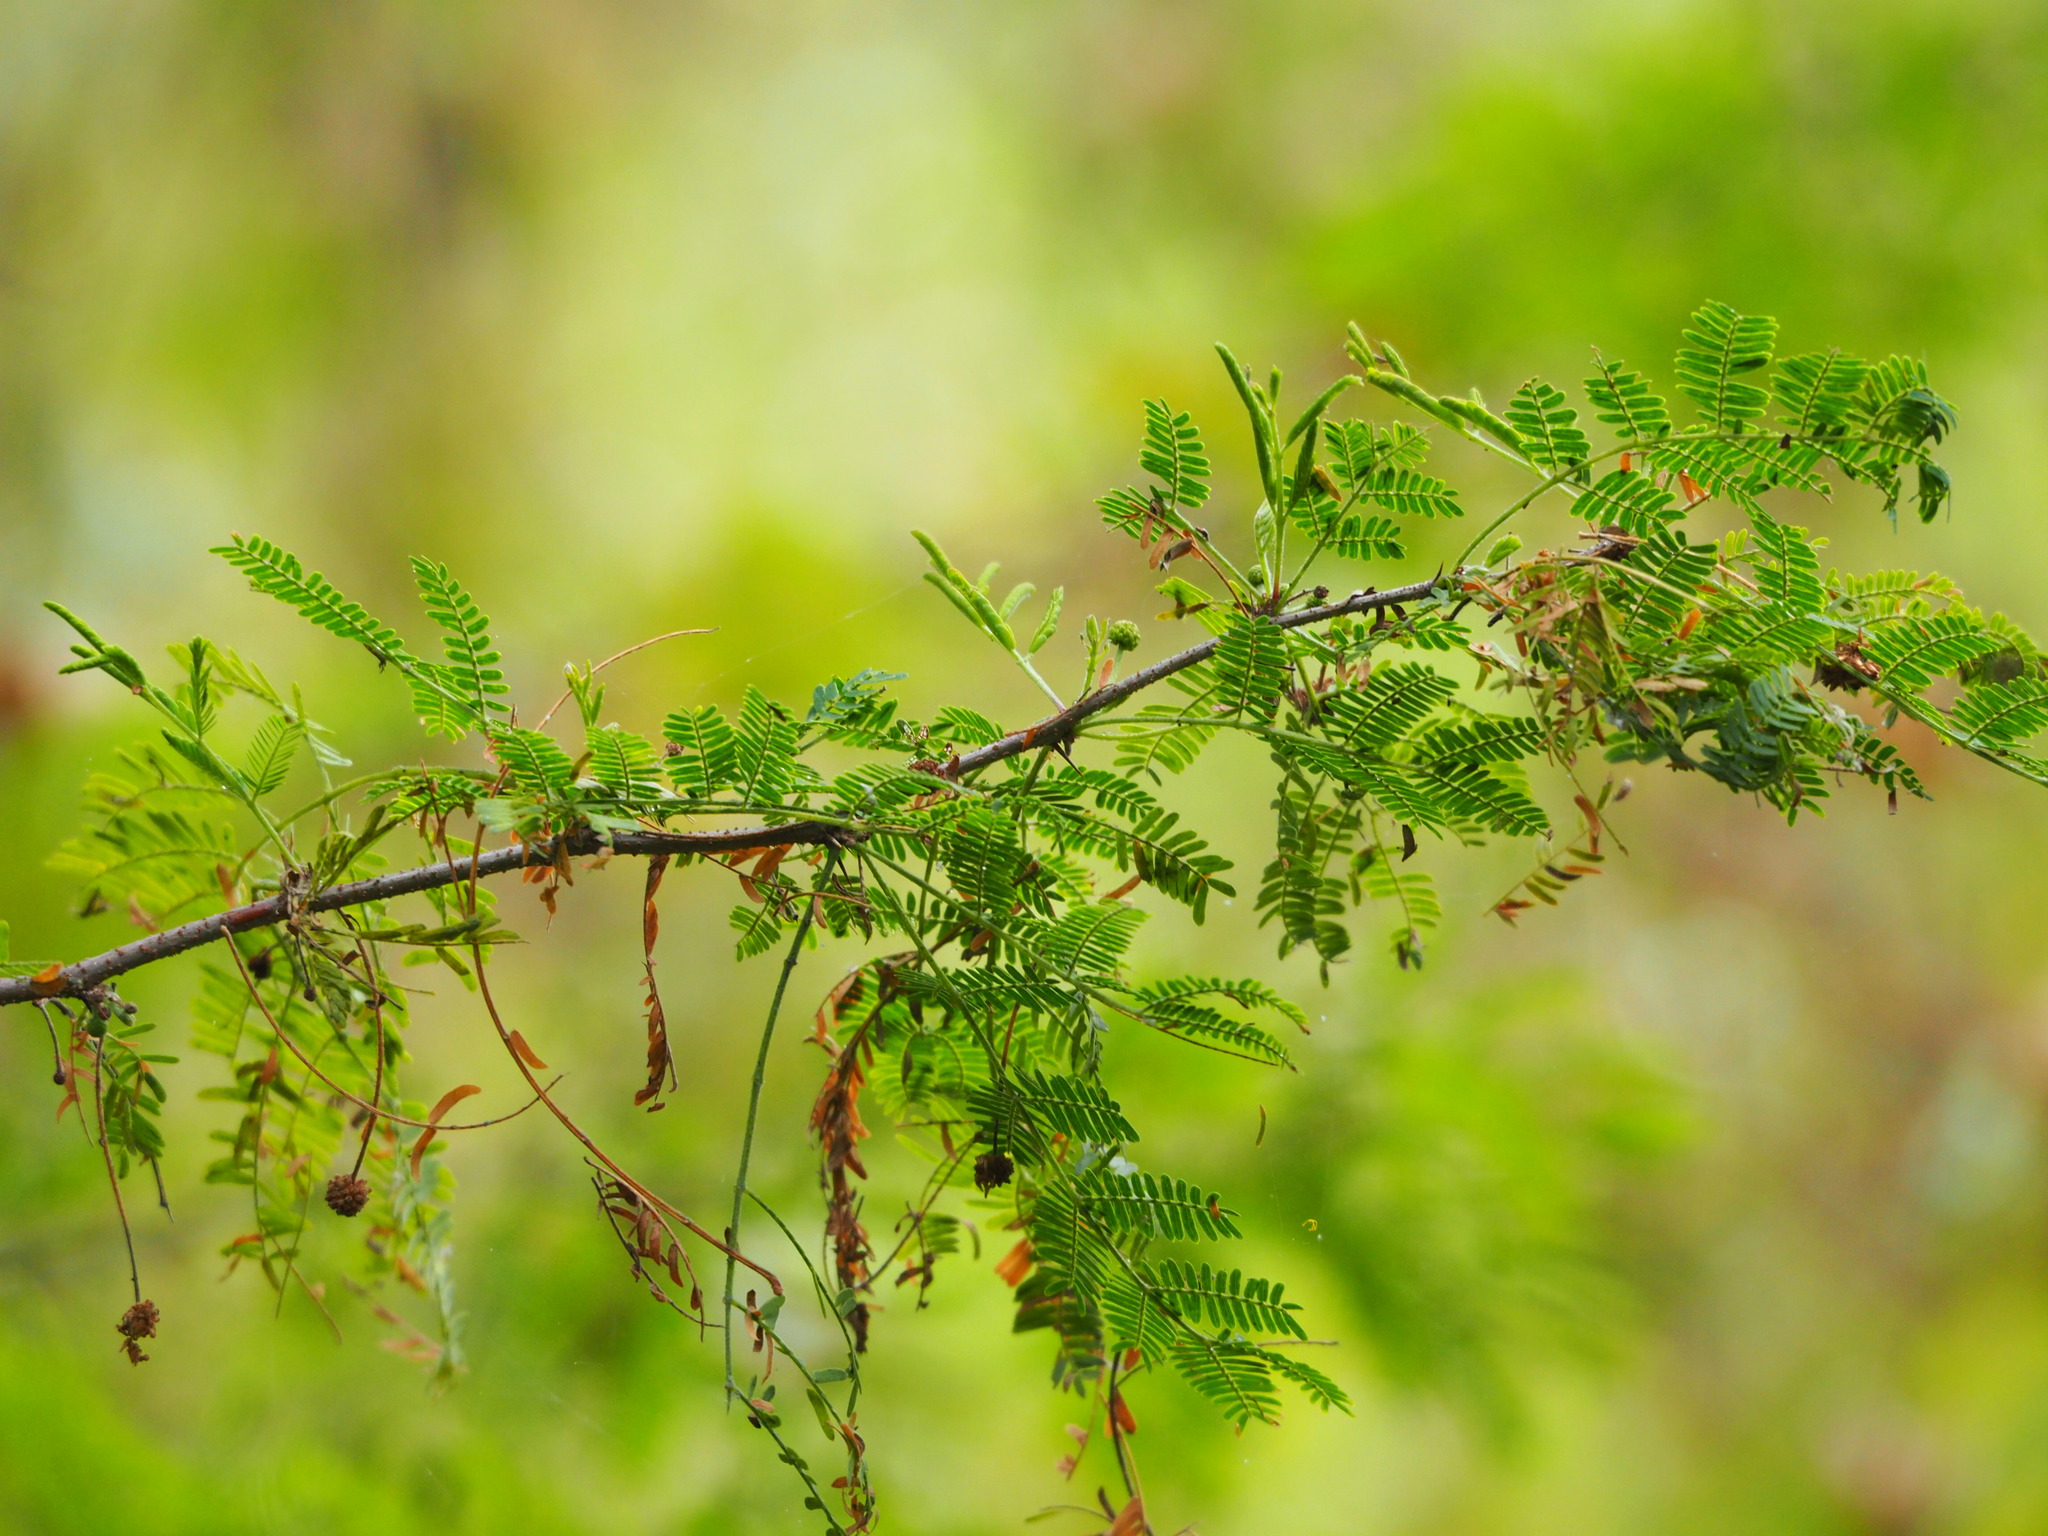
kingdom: Plantae
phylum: Tracheophyta
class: Magnoliopsida
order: Fabales
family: Fabaceae
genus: Vachellia
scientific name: Vachellia farnesiana
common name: Sweet acacia
